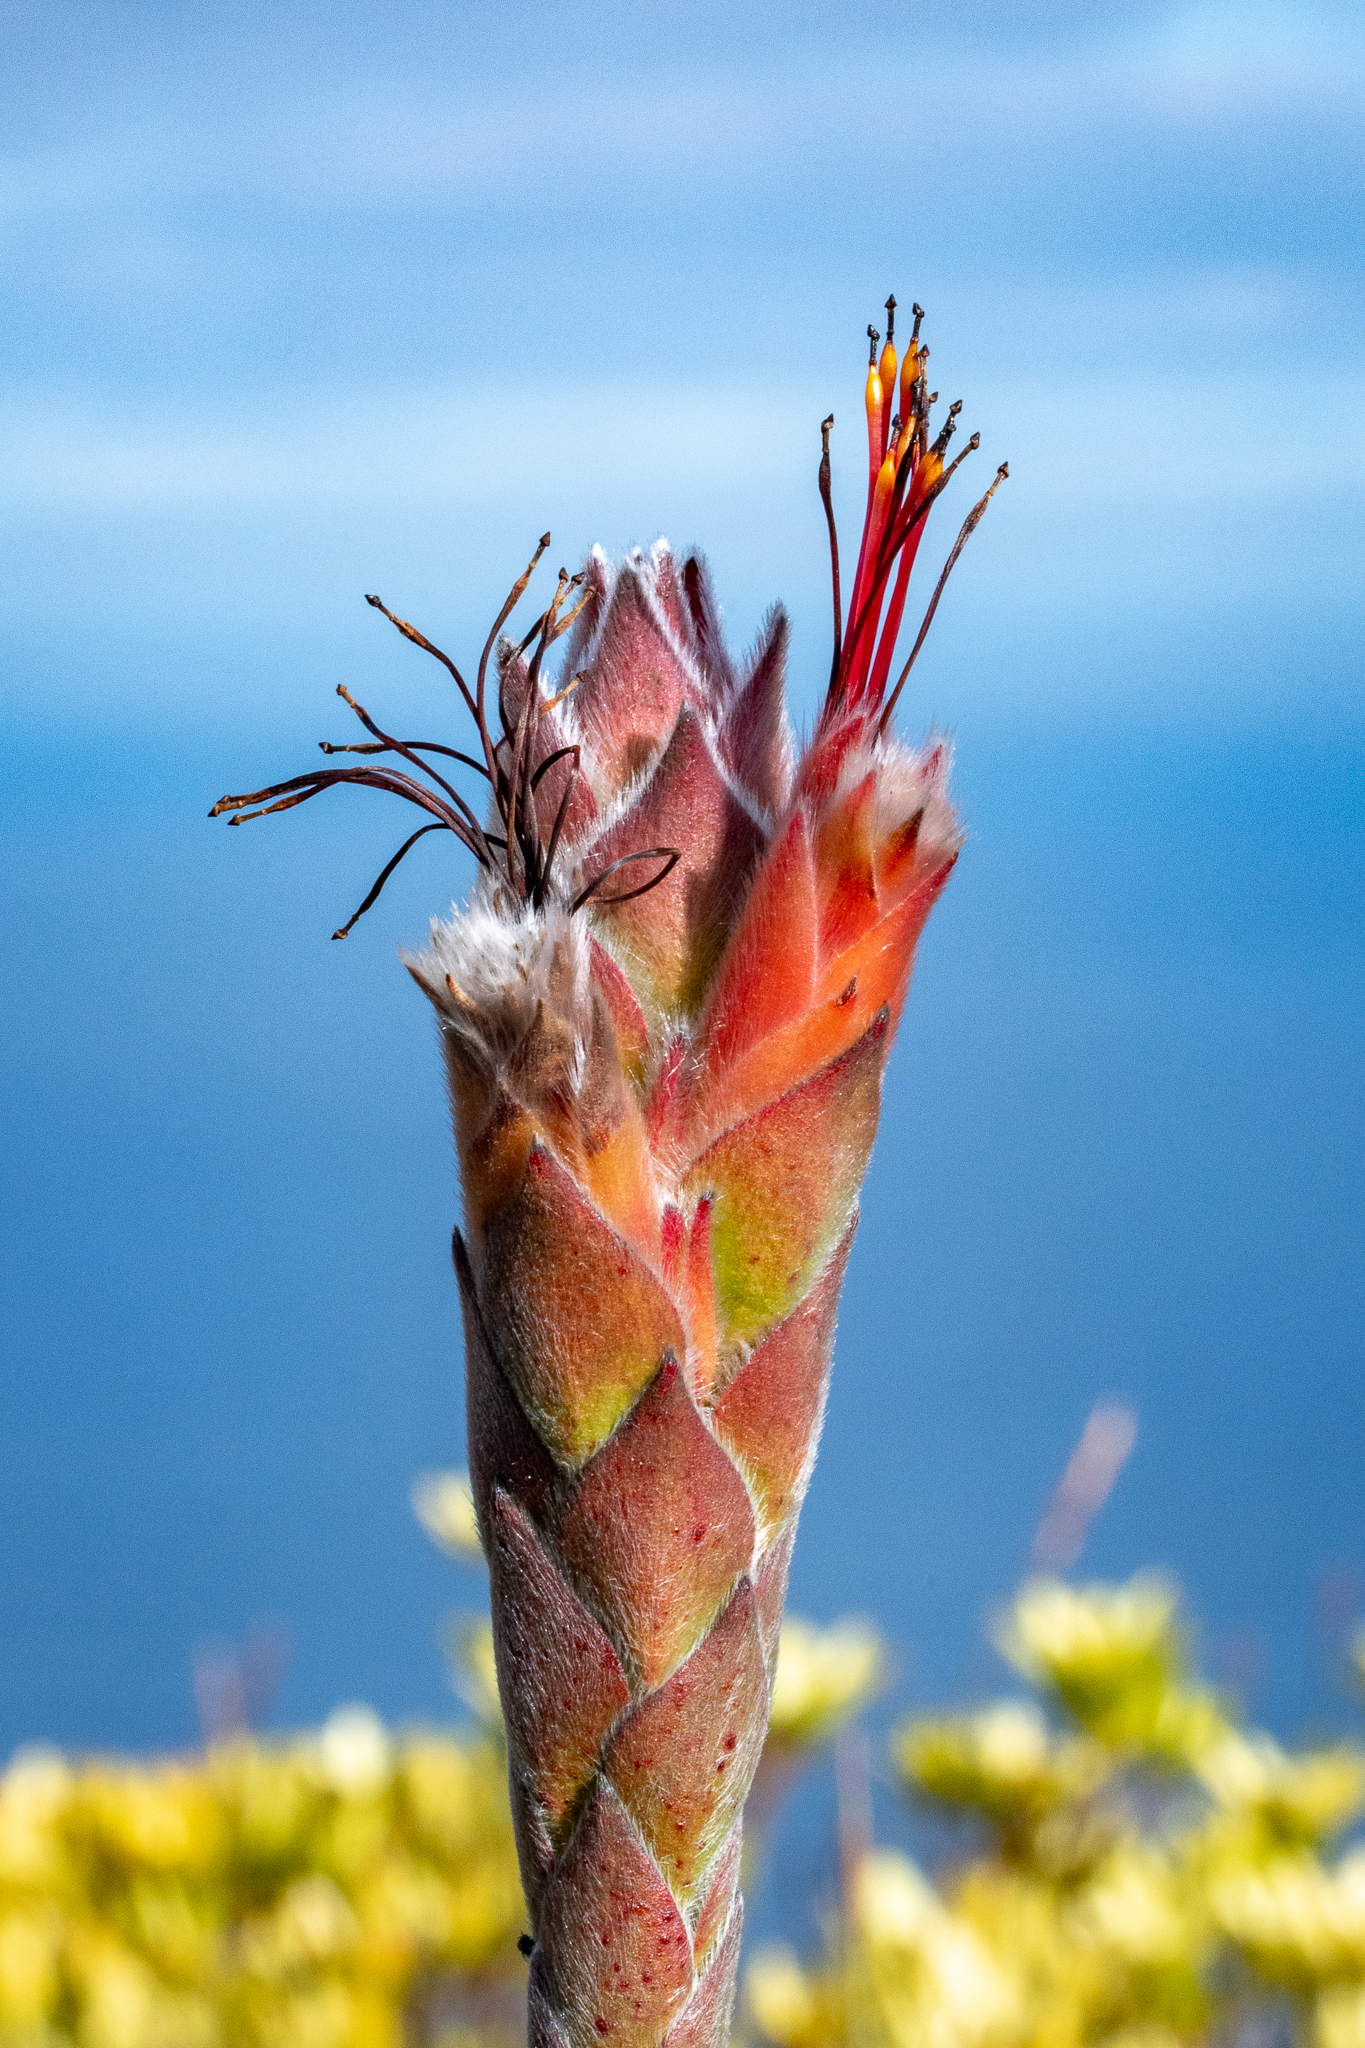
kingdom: Plantae
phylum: Tracheophyta
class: Magnoliopsida
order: Proteales
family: Proteaceae
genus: Mimetes
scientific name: Mimetes capitulatus
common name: Conical pagoda
